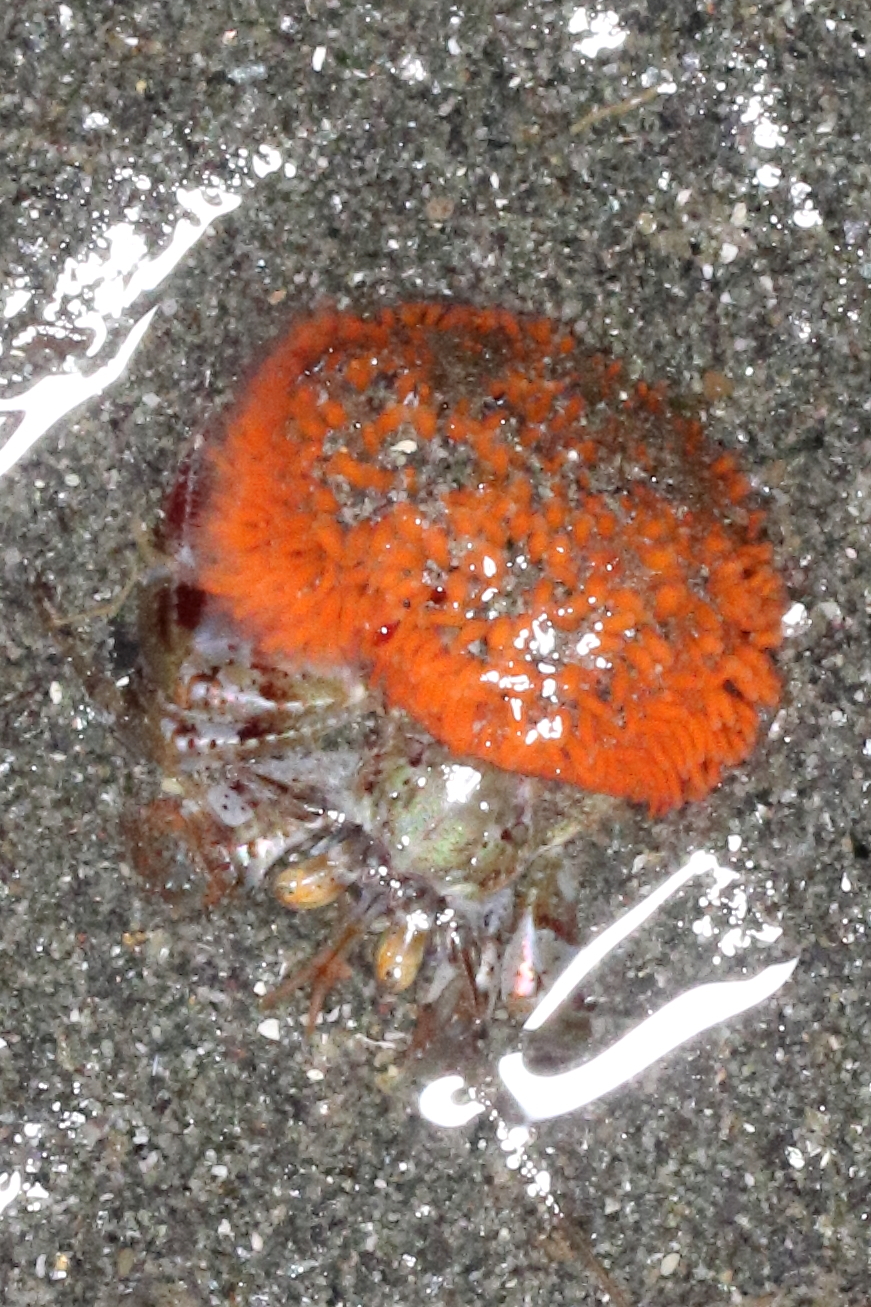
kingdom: Animalia
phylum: Arthropoda
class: Malacostraca
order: Decapoda
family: Paguridae
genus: Pagurus
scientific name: Pagurus ochotensis
